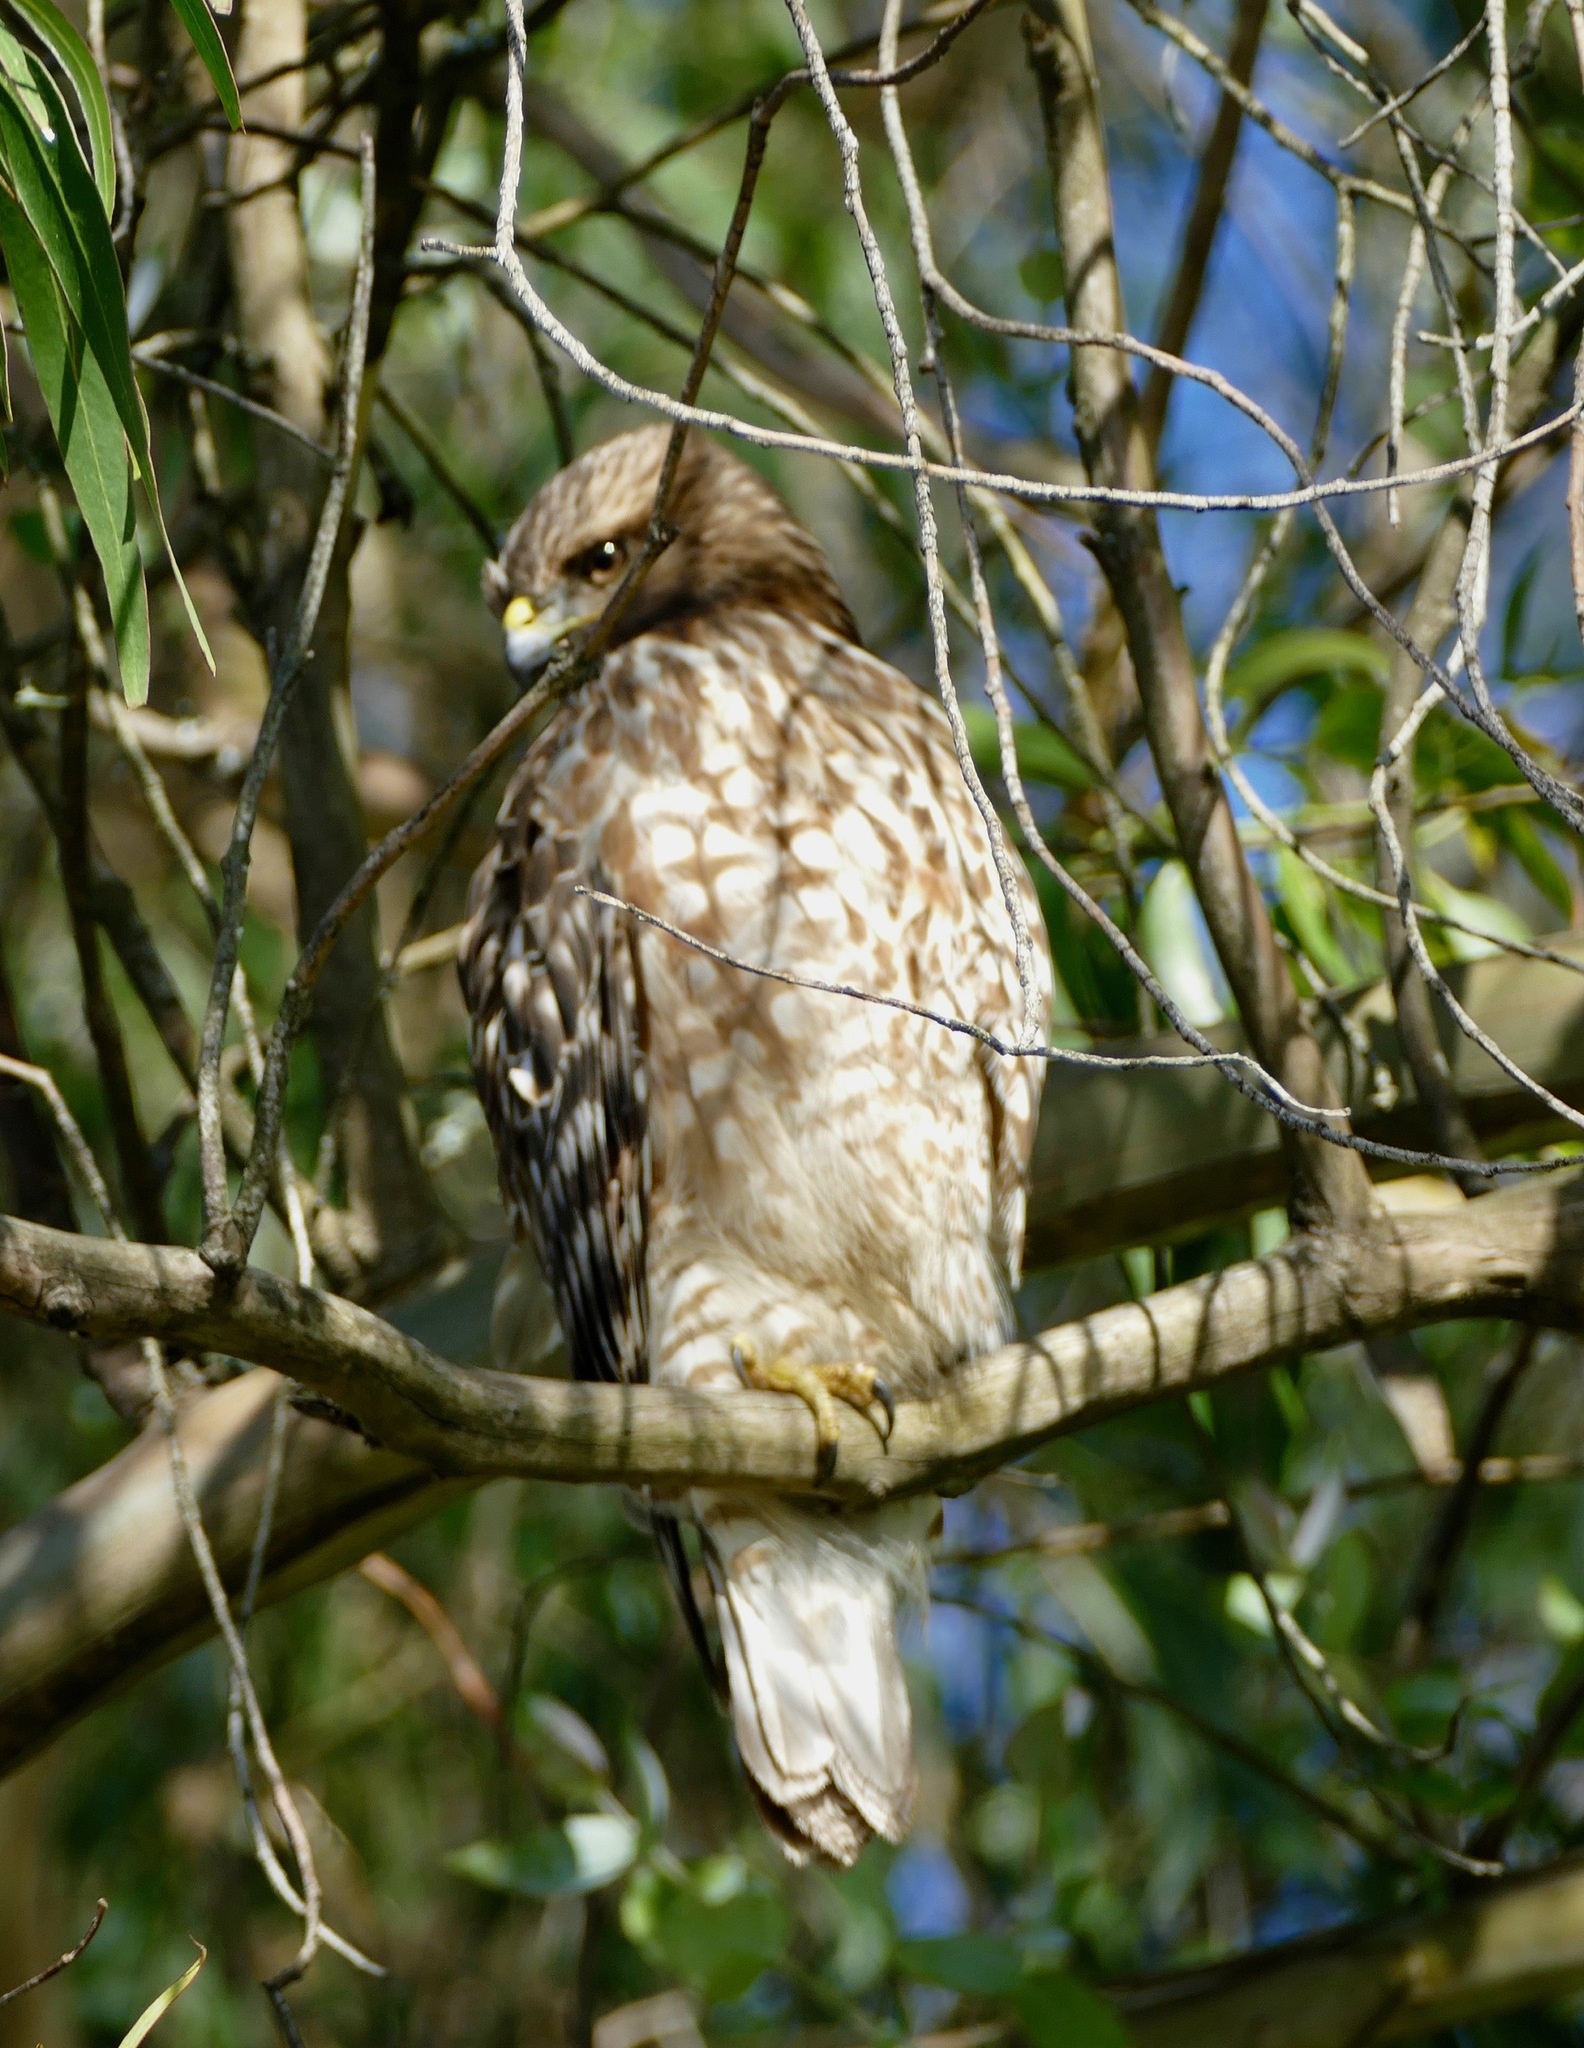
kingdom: Animalia
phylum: Chordata
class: Aves
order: Accipitriformes
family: Accipitridae
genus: Buteo
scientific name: Buteo lineatus
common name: Red-shouldered hawk
